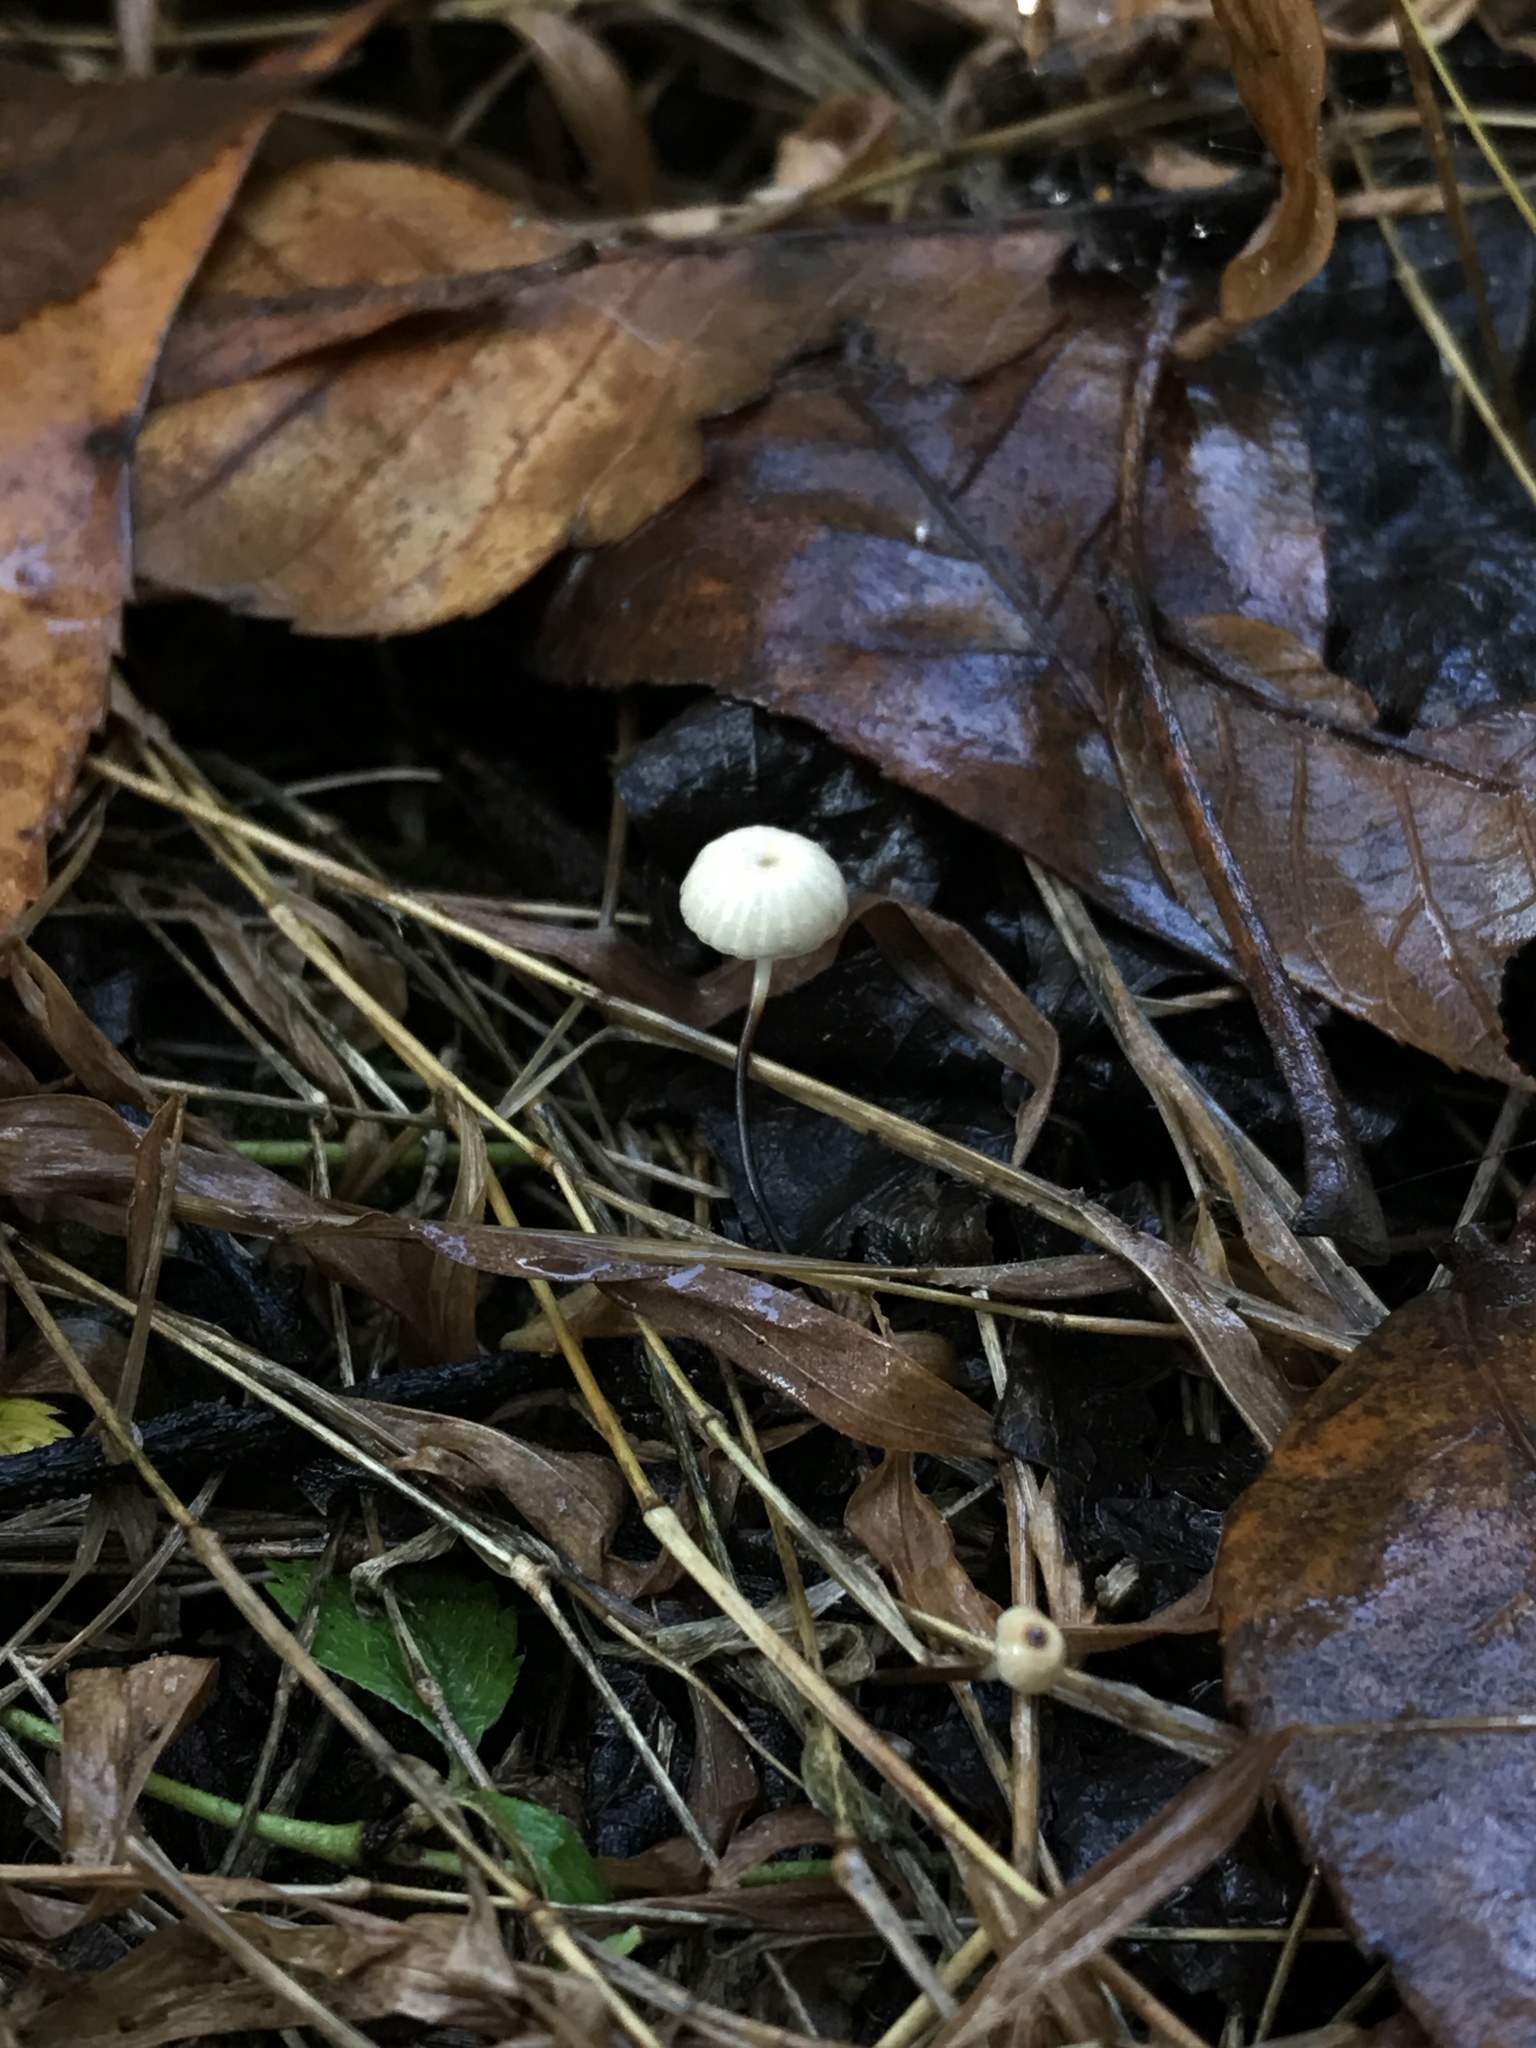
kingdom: Fungi
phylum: Basidiomycota
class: Agaricomycetes
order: Agaricales
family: Marasmiaceae
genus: Marasmius
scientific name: Marasmius capillaris
